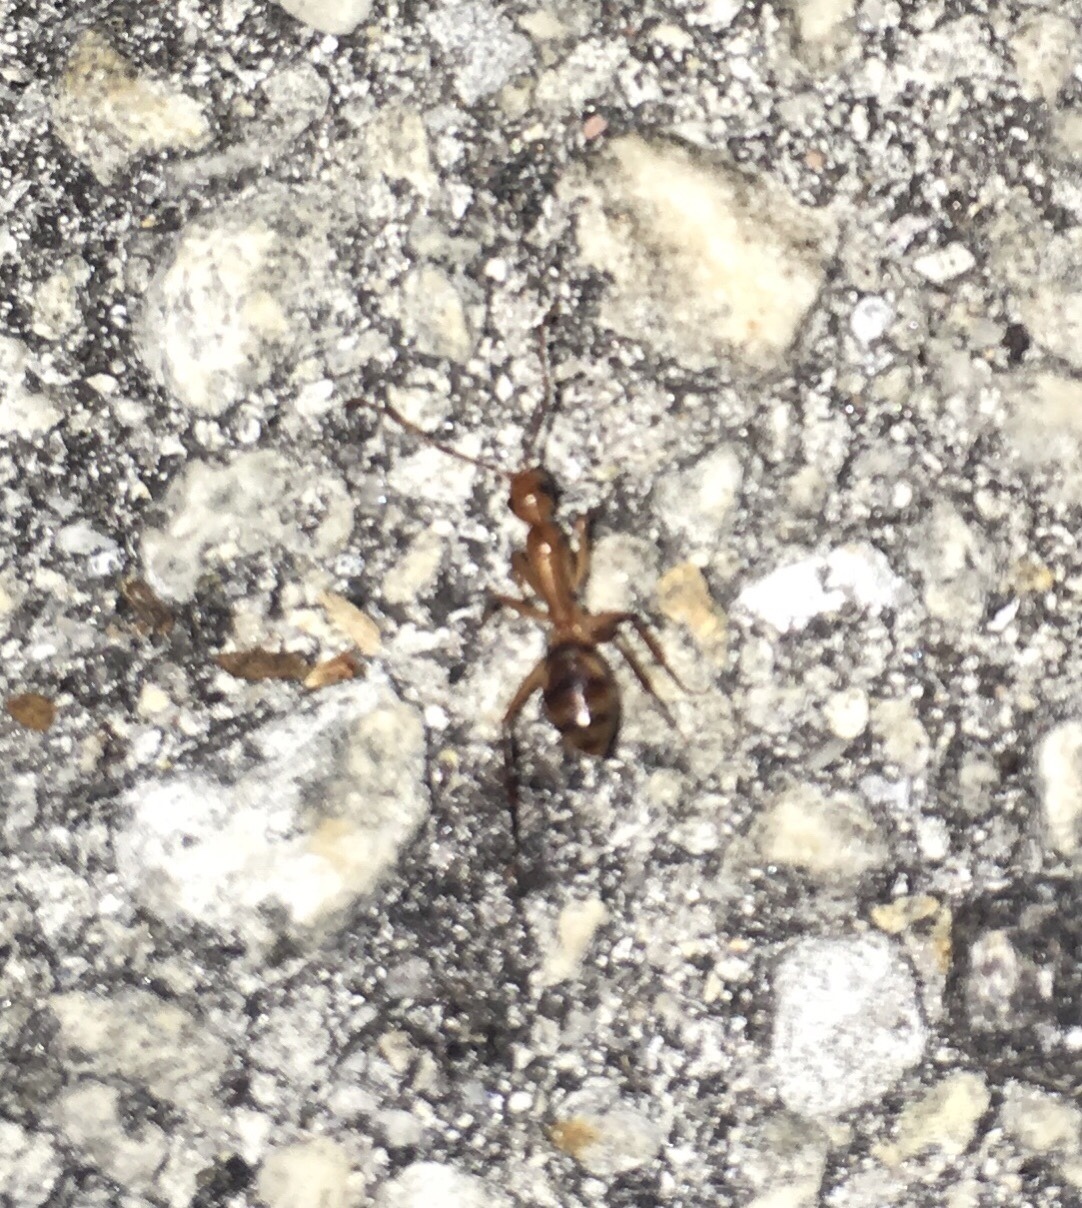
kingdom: Animalia
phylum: Arthropoda
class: Insecta
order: Hymenoptera
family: Formicidae
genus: Camponotus
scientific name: Camponotus
